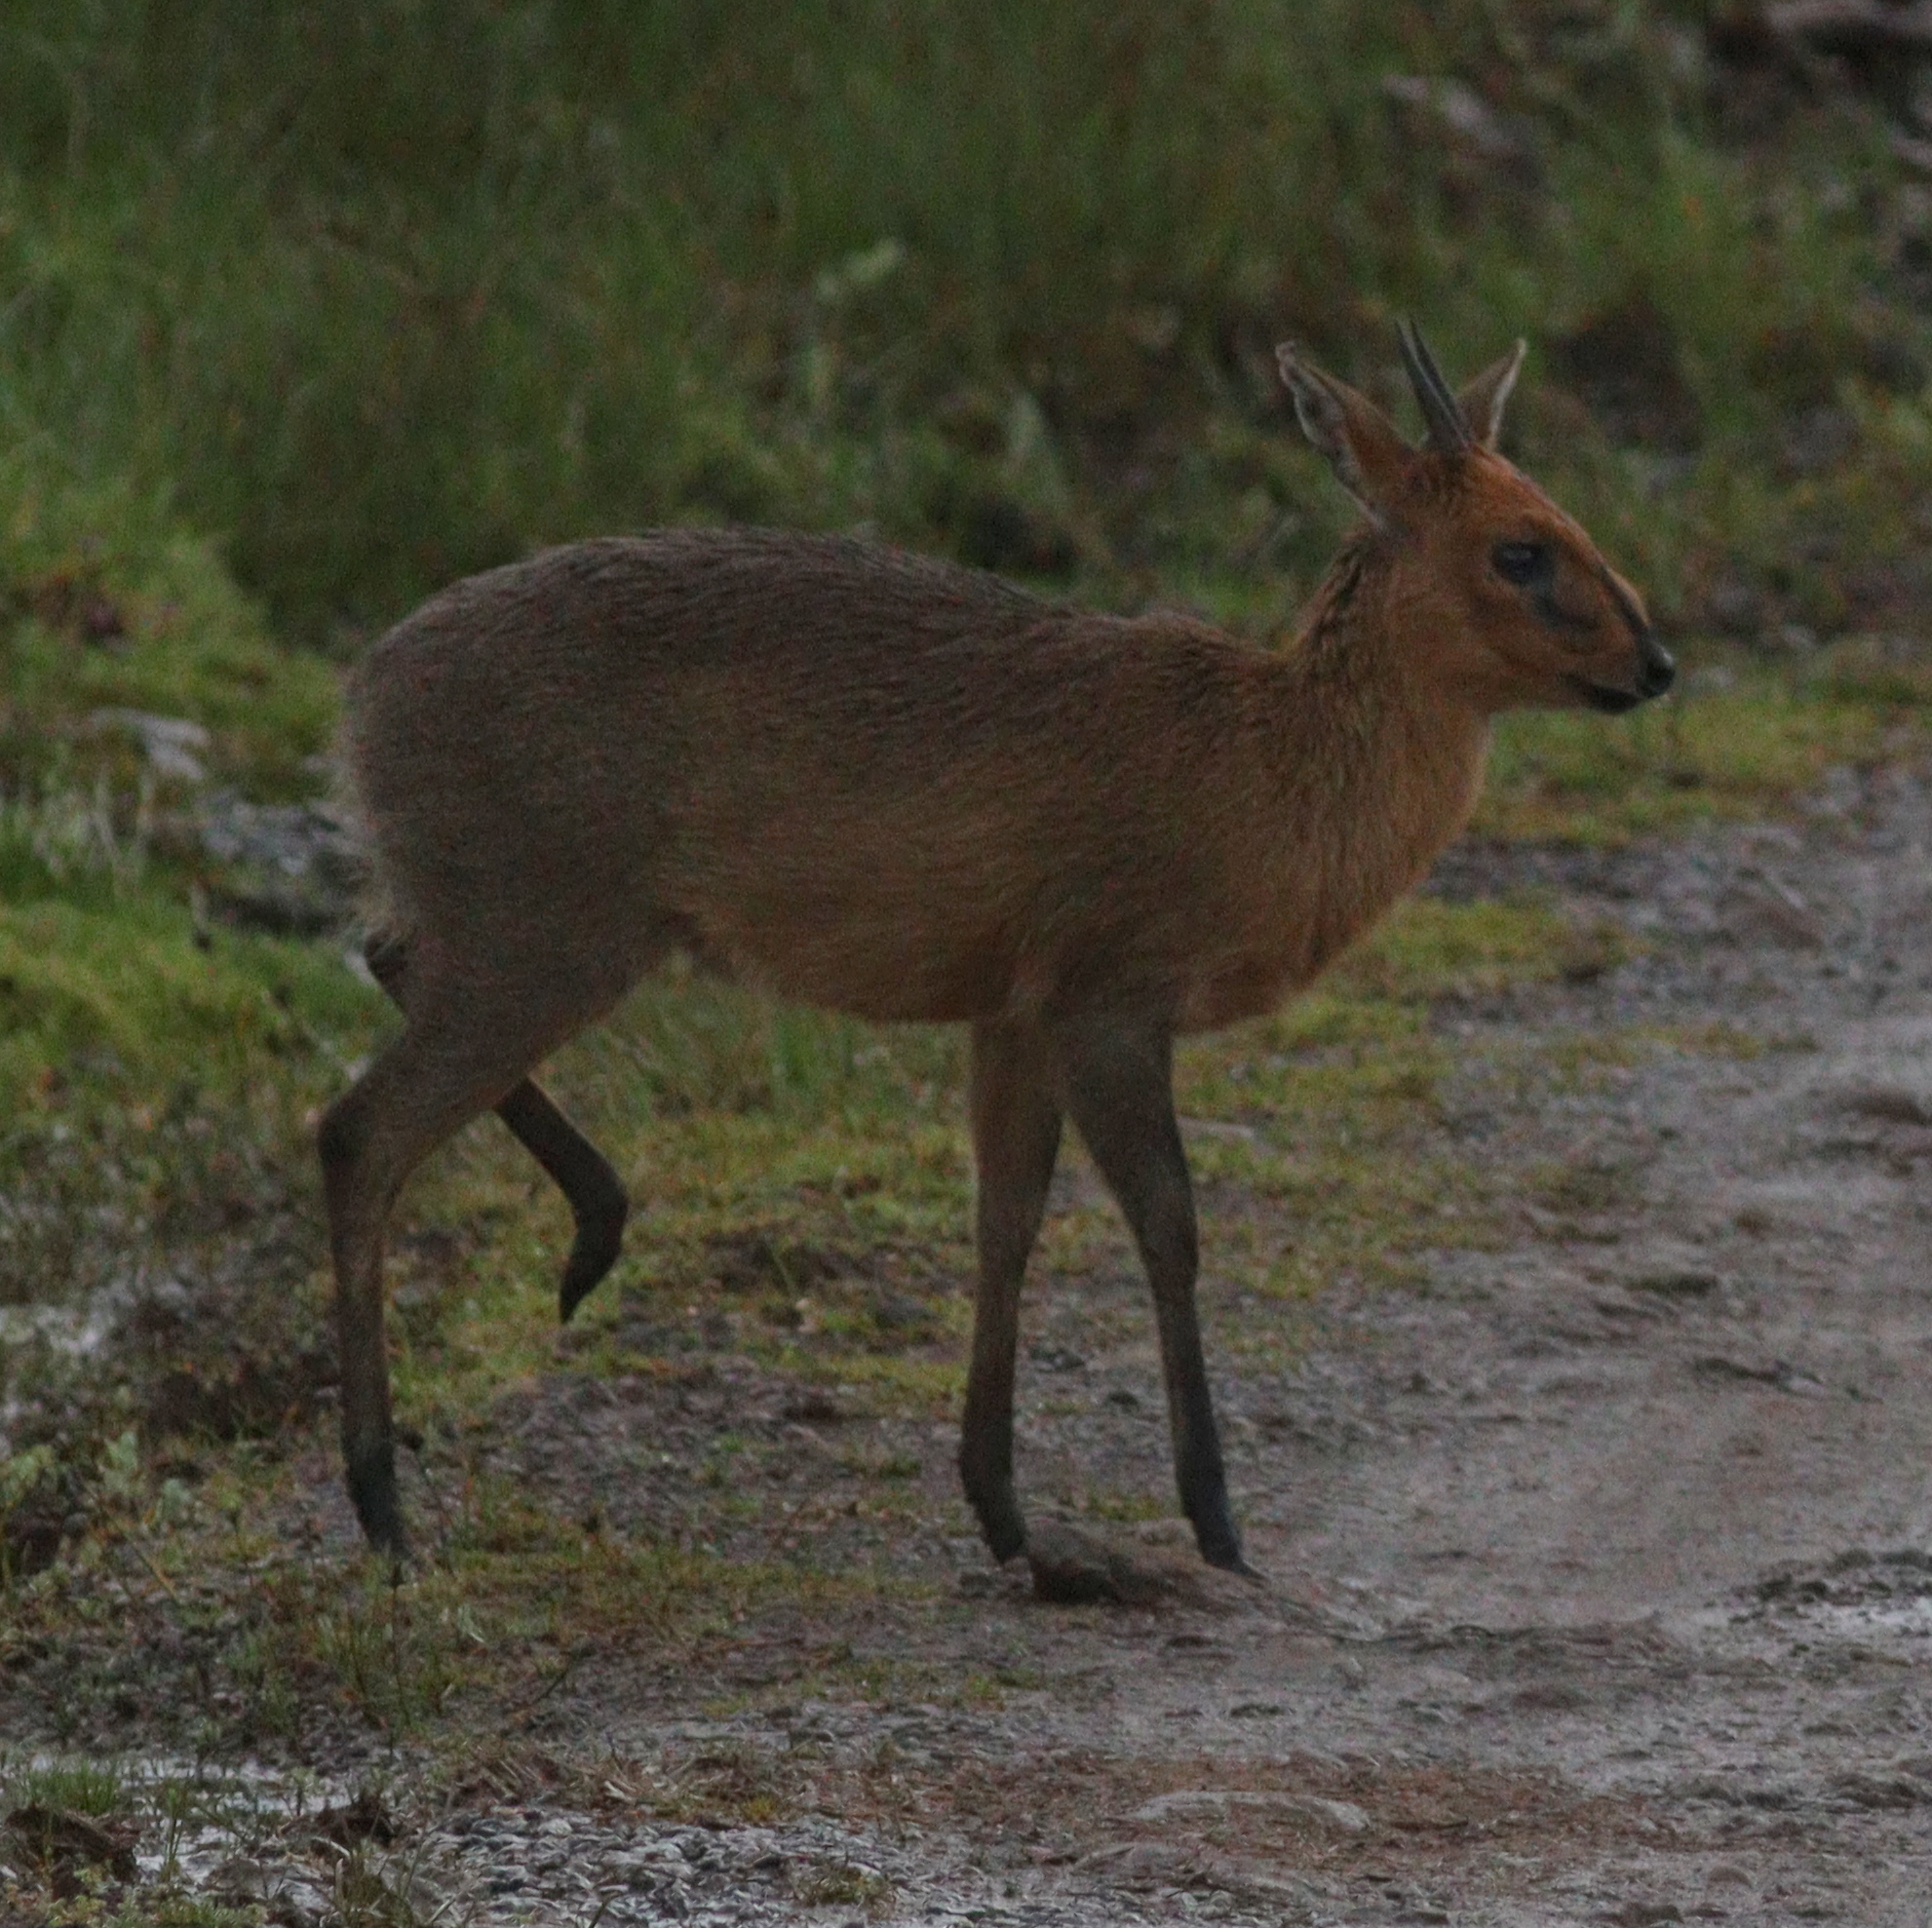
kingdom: Animalia
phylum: Chordata
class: Mammalia
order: Artiodactyla
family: Bovidae
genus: Sylvicapra
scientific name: Sylvicapra grimmia
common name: Bush duiker
